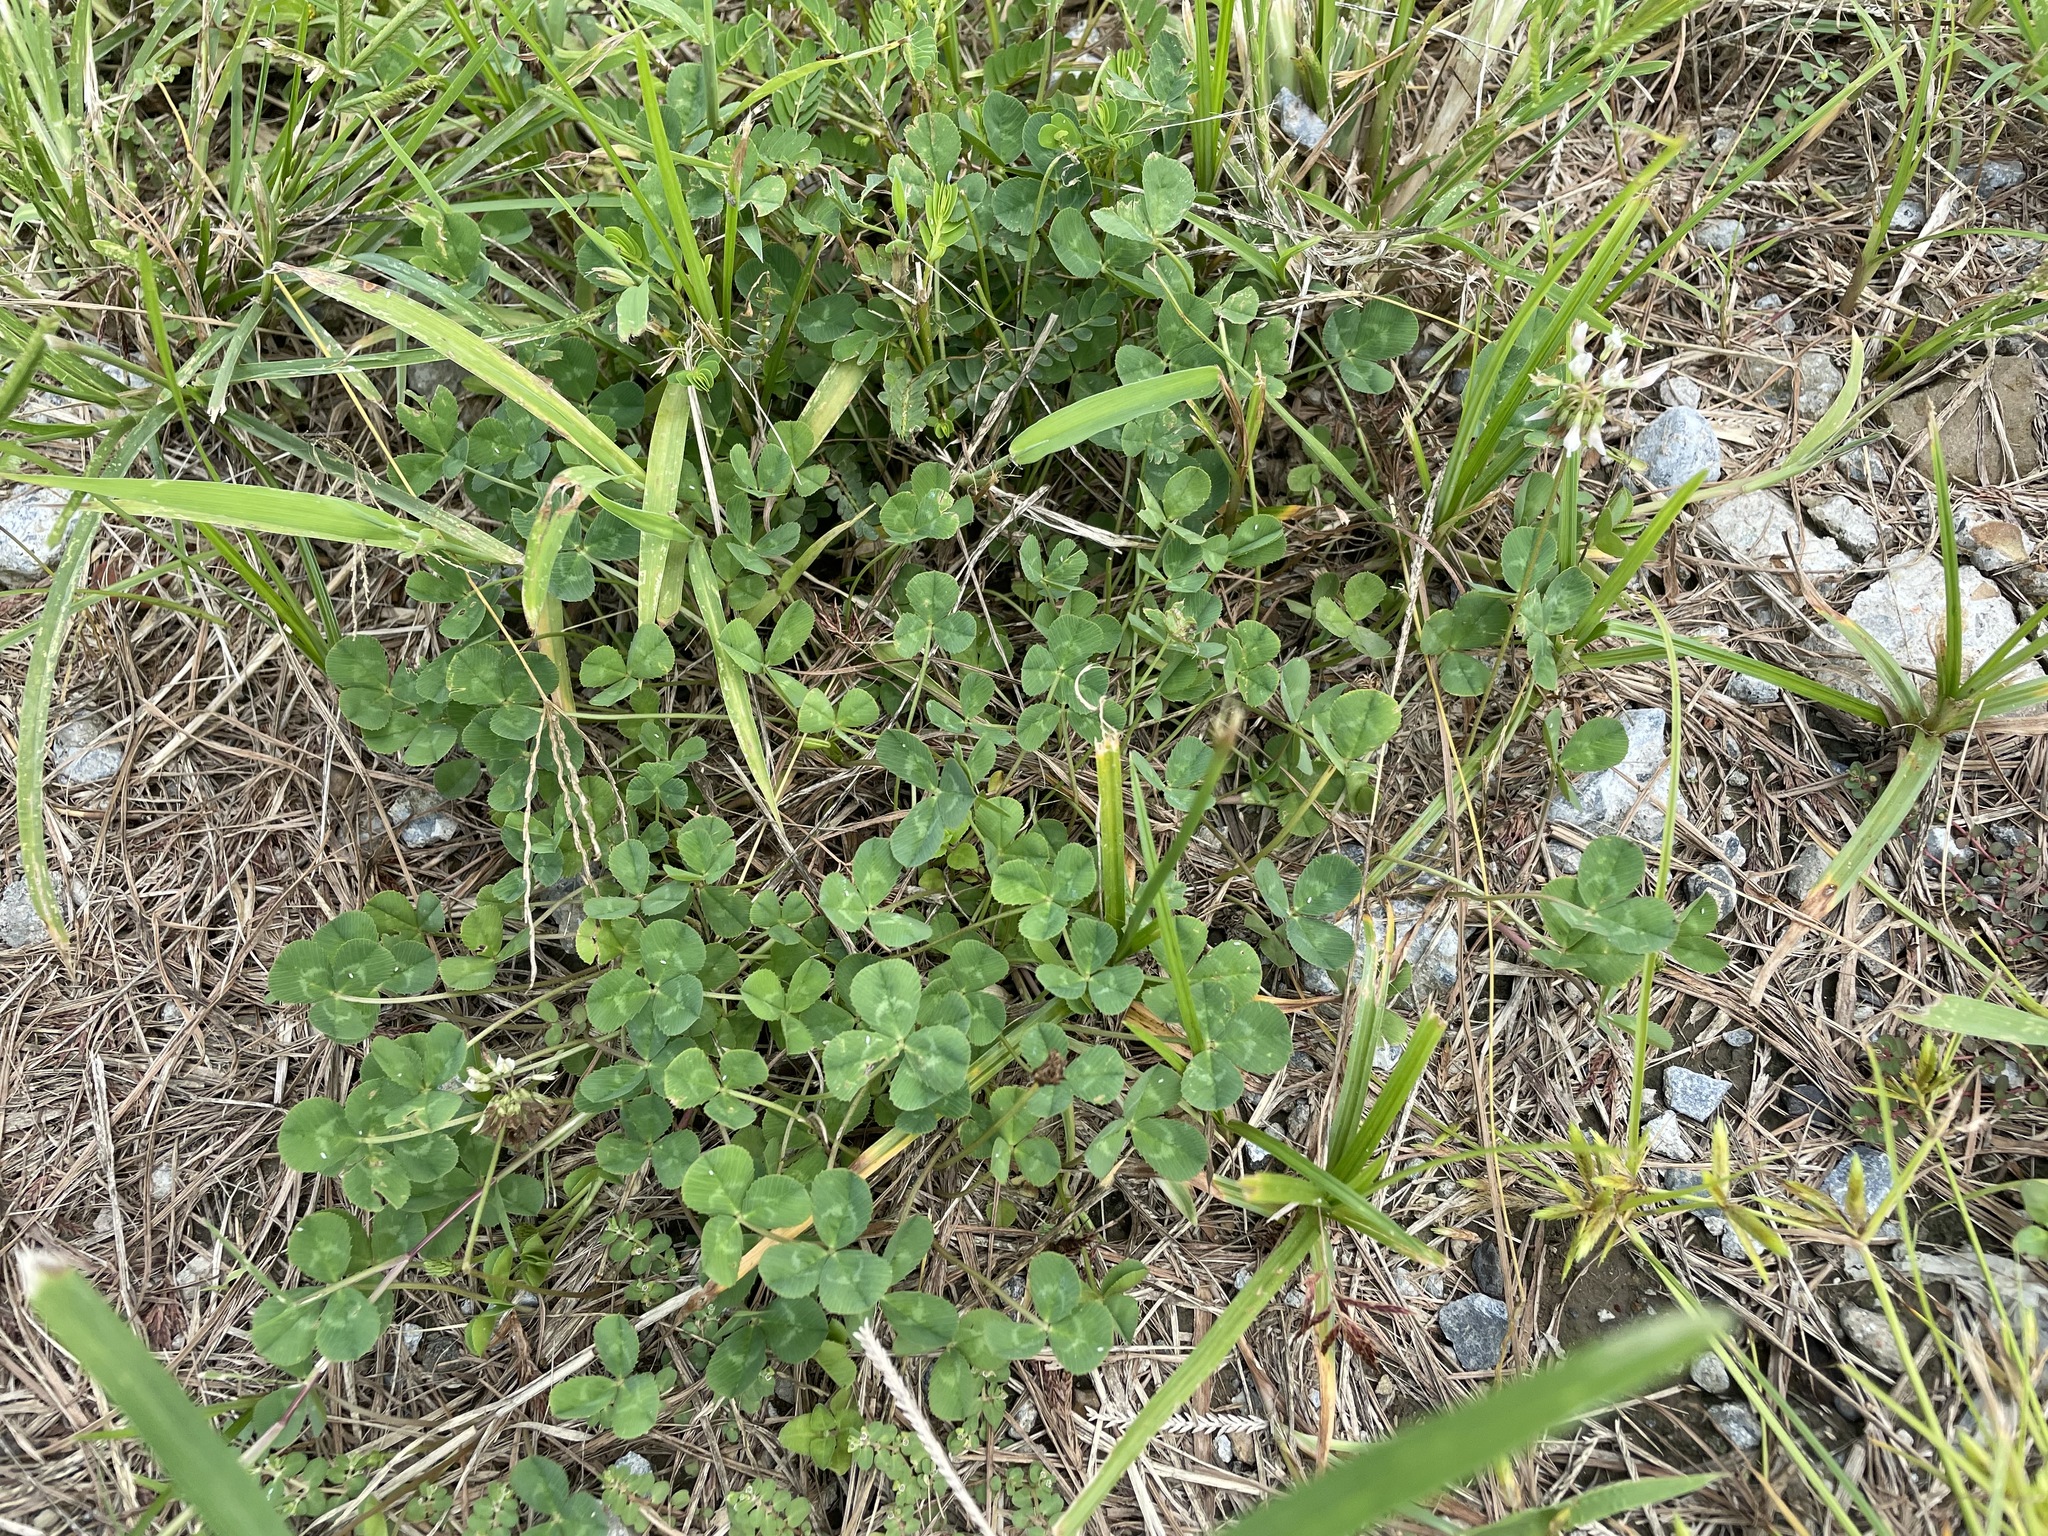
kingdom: Plantae
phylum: Tracheophyta
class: Magnoliopsida
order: Fabales
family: Fabaceae
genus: Trifolium
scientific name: Trifolium repens
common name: White clover
